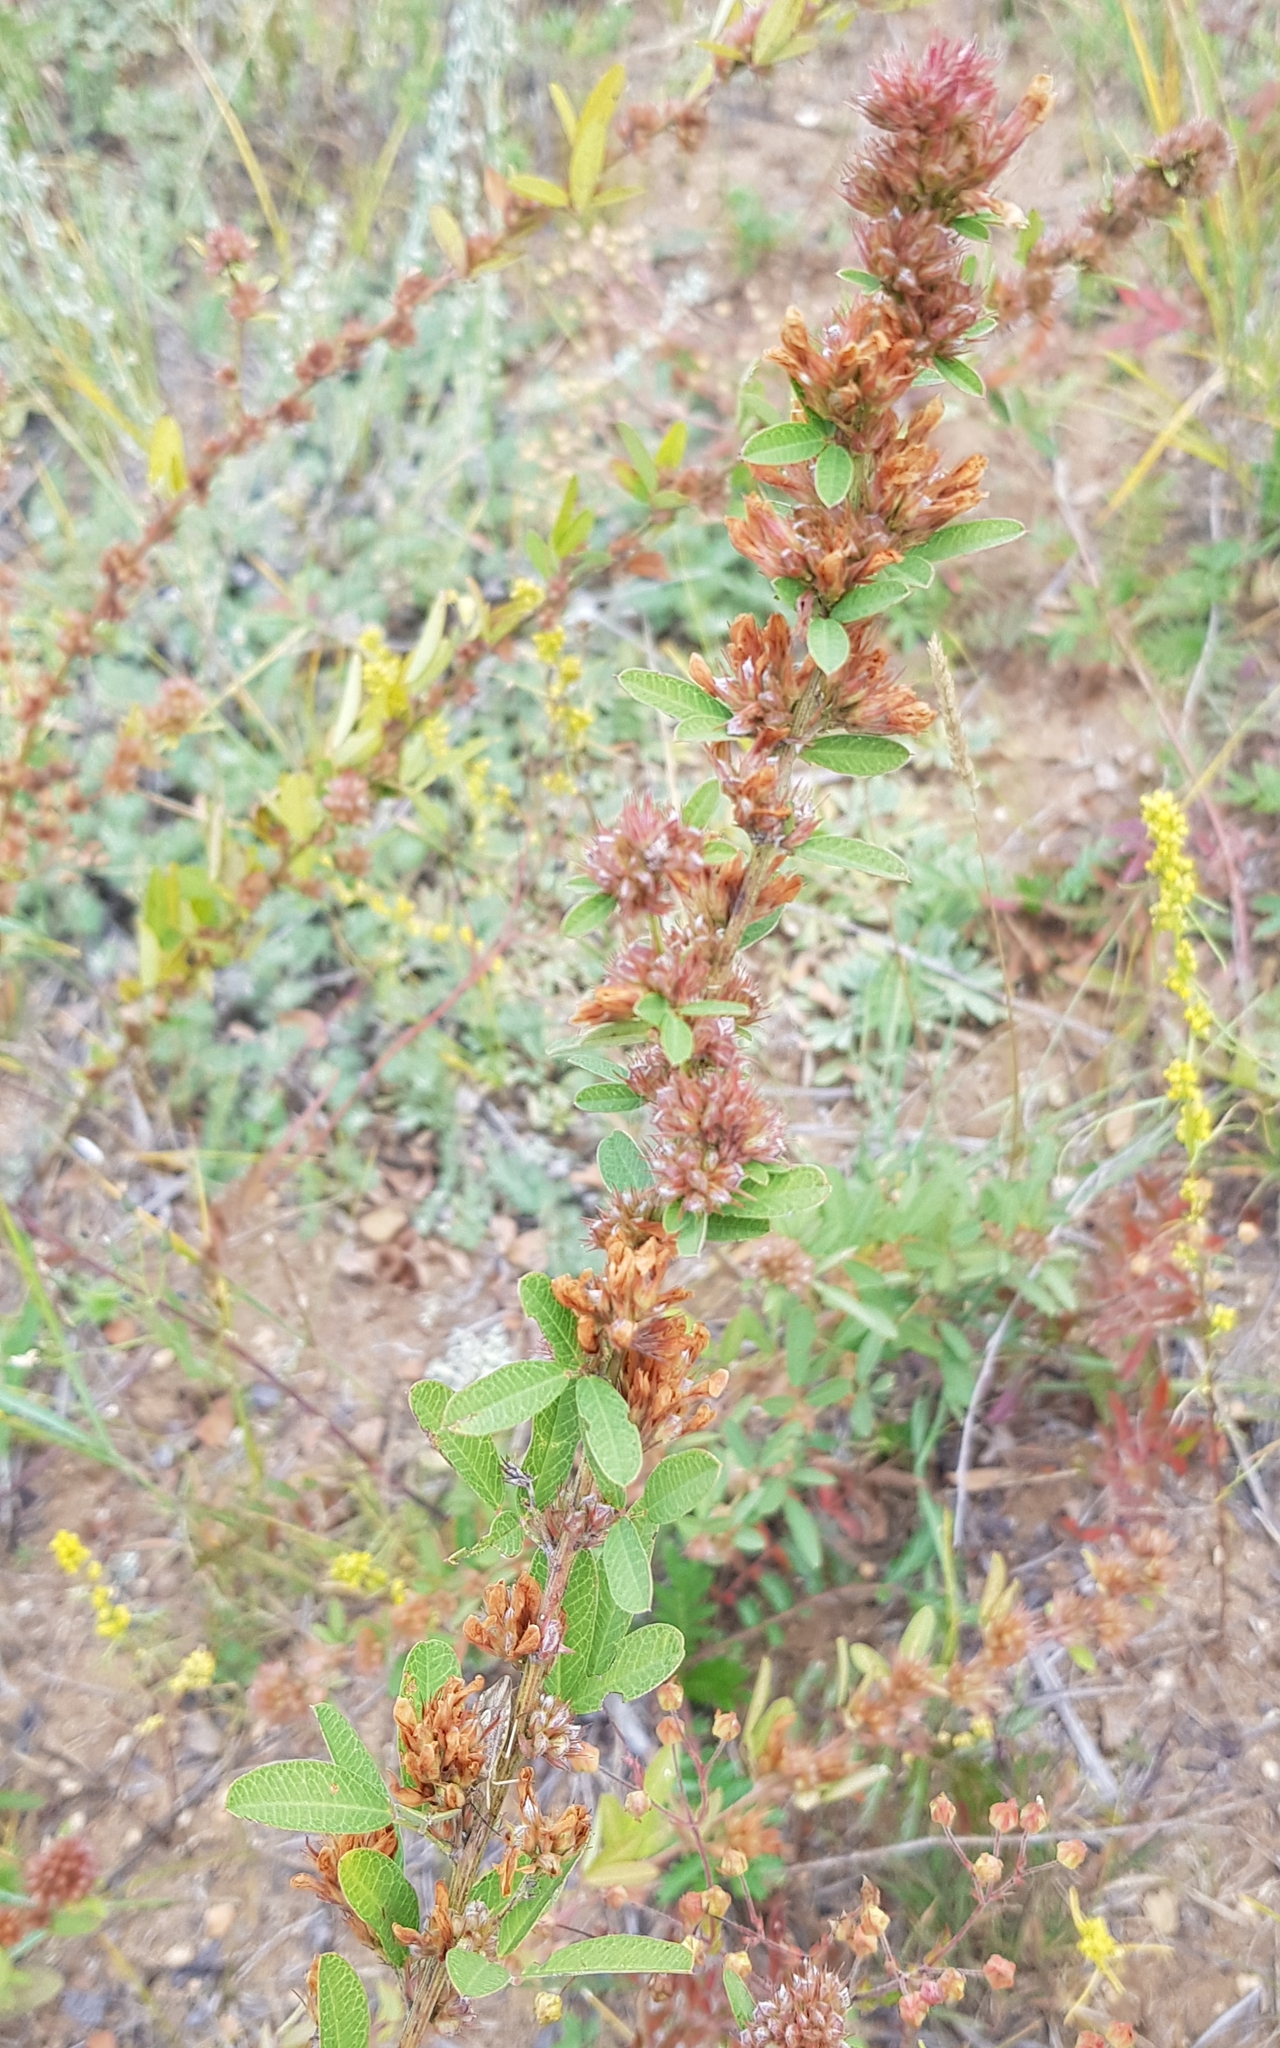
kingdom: Plantae
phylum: Tracheophyta
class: Magnoliopsida
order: Fabales
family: Fabaceae
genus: Lespedeza
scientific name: Lespedeza juncea
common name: Siberian lespedeza
